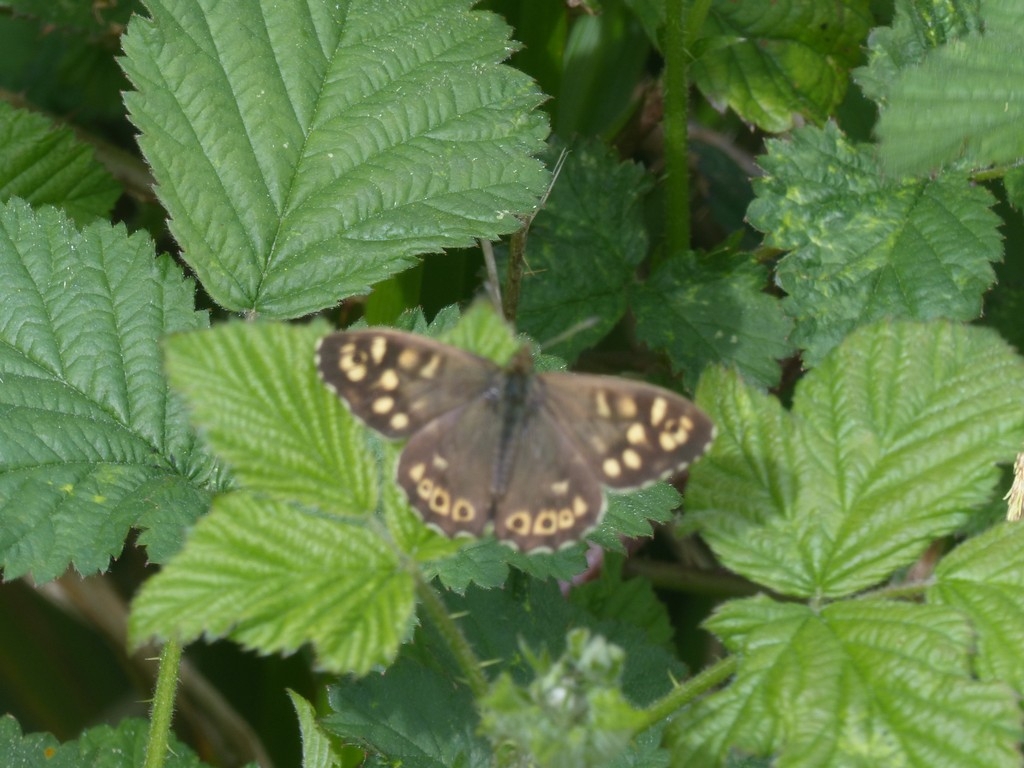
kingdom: Animalia
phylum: Arthropoda
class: Insecta
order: Lepidoptera
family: Nymphalidae
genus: Pararge
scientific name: Pararge aegeria
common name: Speckled wood
